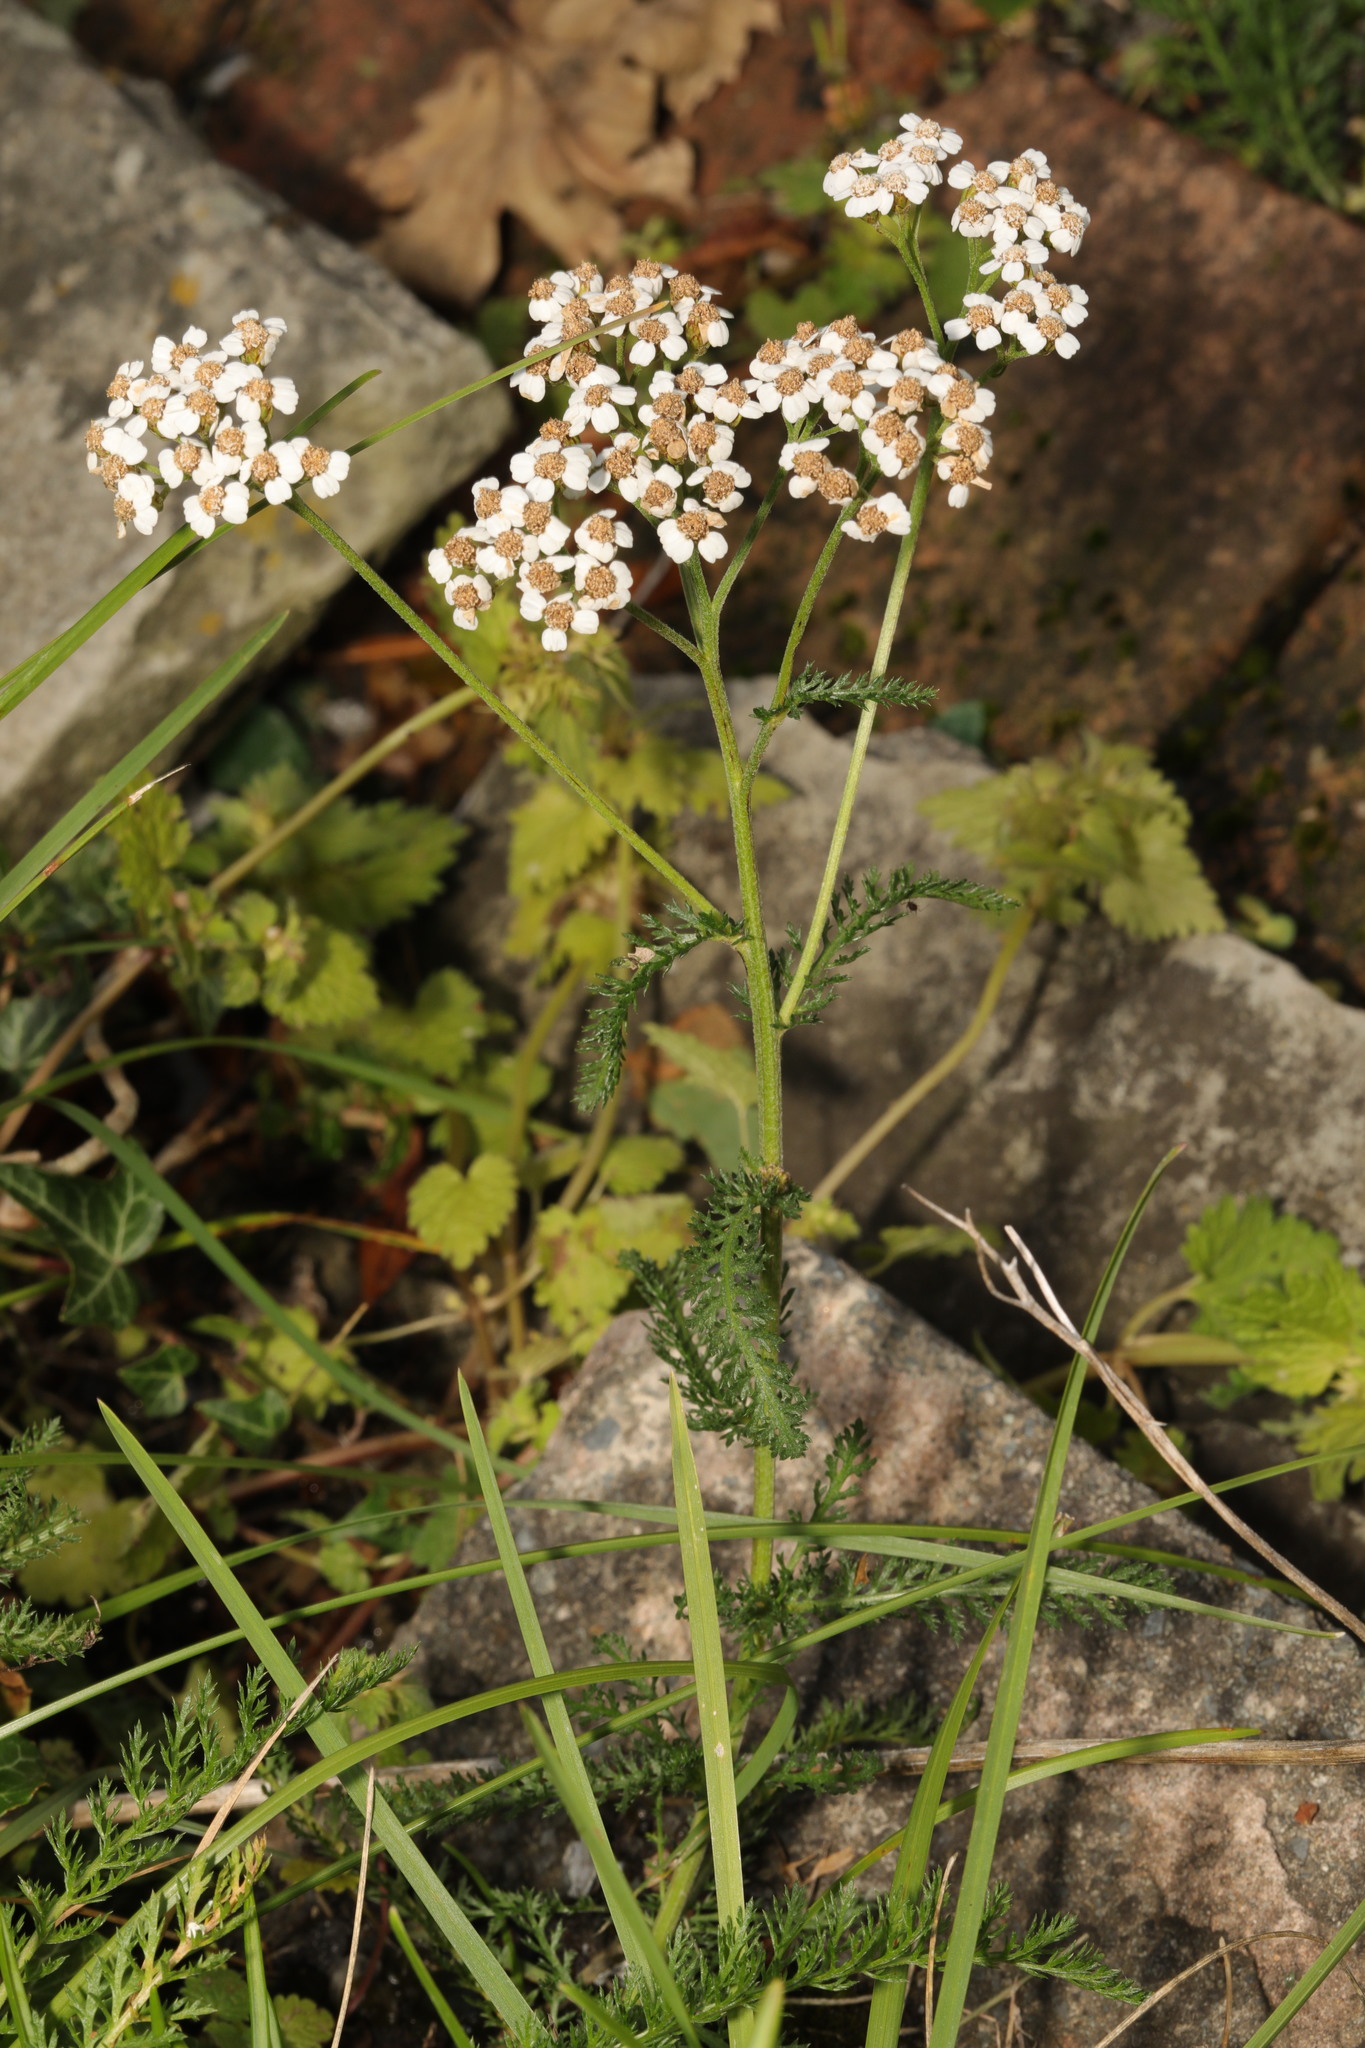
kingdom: Plantae
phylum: Tracheophyta
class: Magnoliopsida
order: Asterales
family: Asteraceae
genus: Achillea
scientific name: Achillea millefolium
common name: Yarrow
